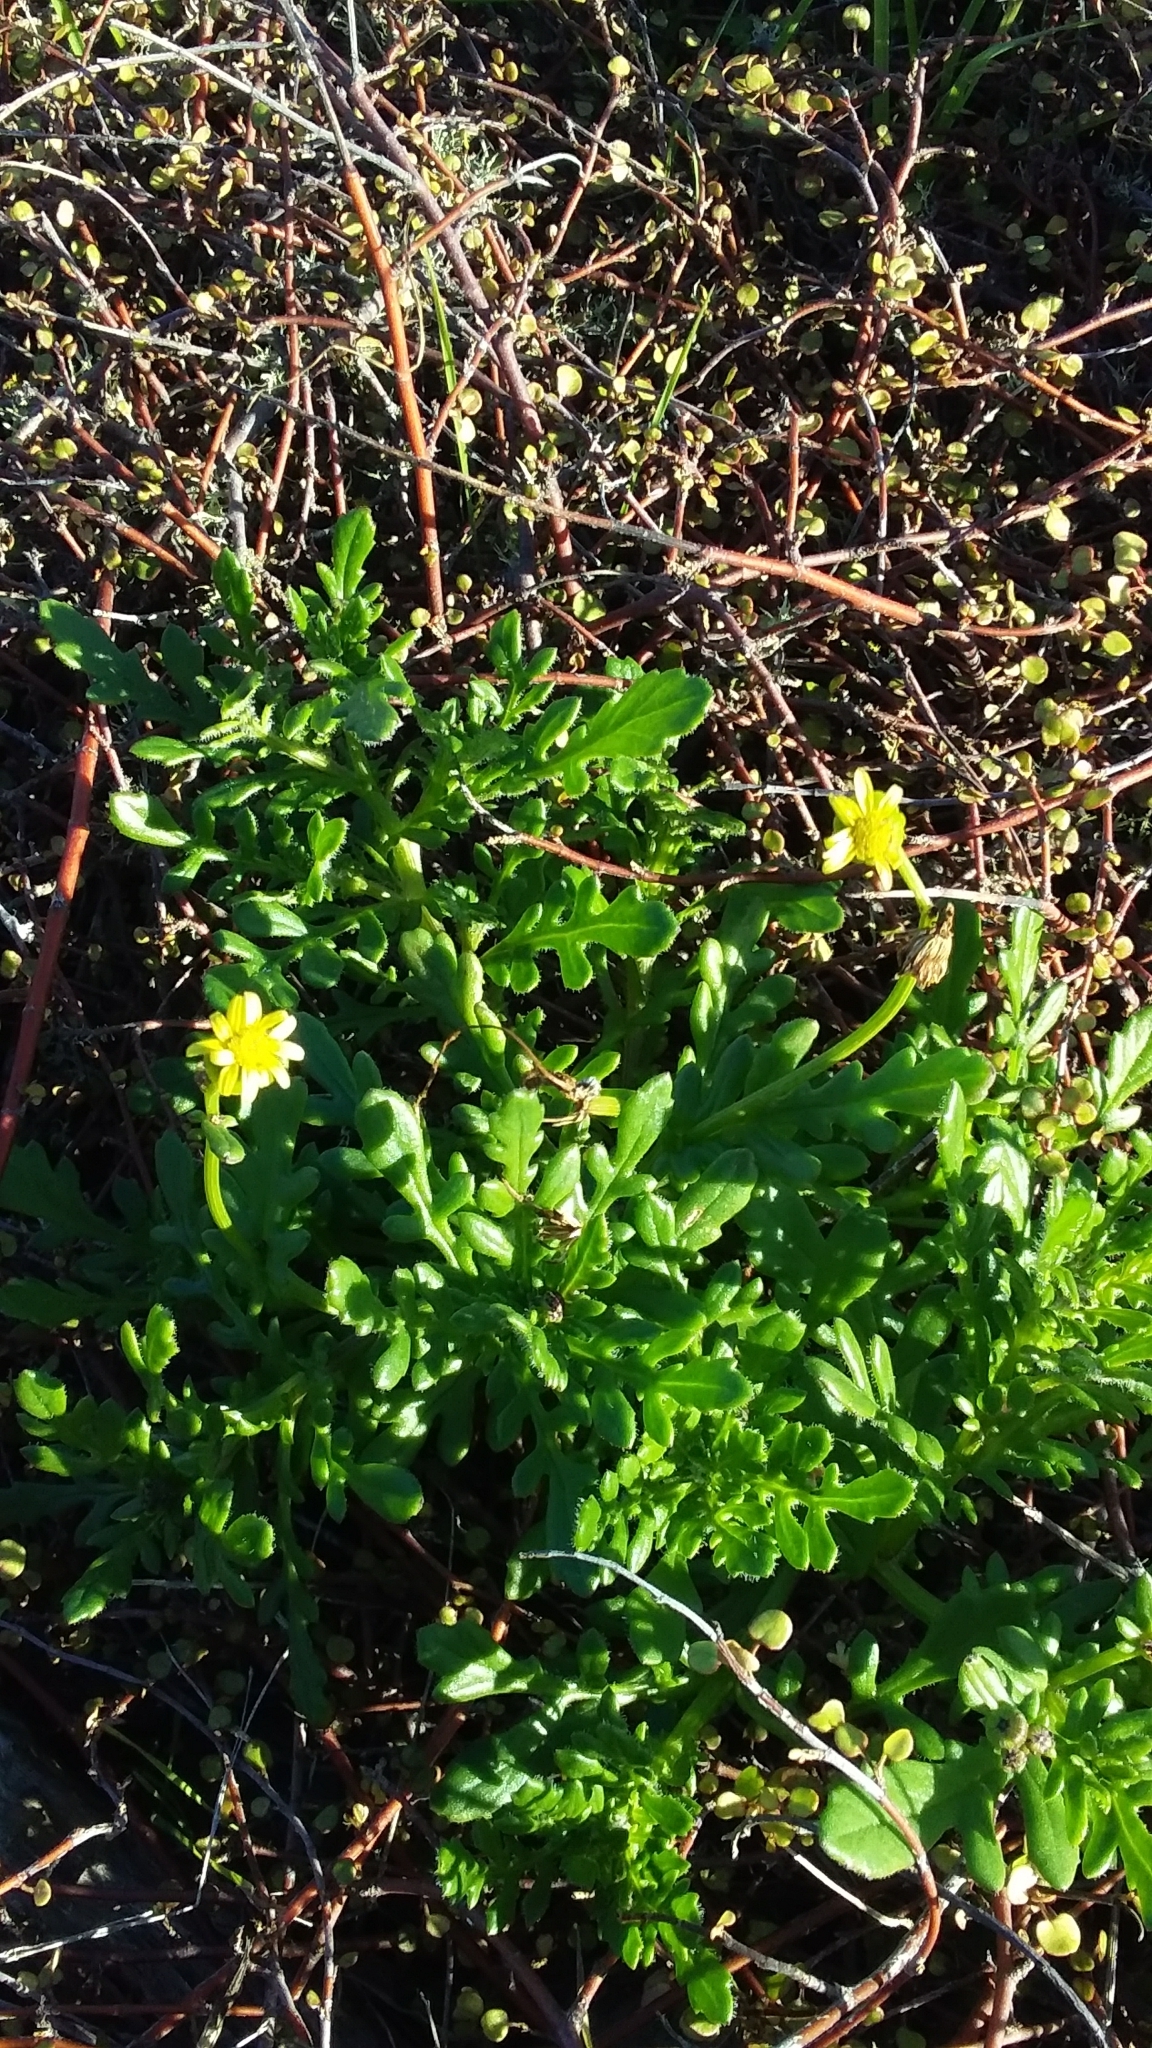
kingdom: Plantae
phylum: Tracheophyta
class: Magnoliopsida
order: Asterales
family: Asteraceae
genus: Senecio
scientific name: Senecio lautus
